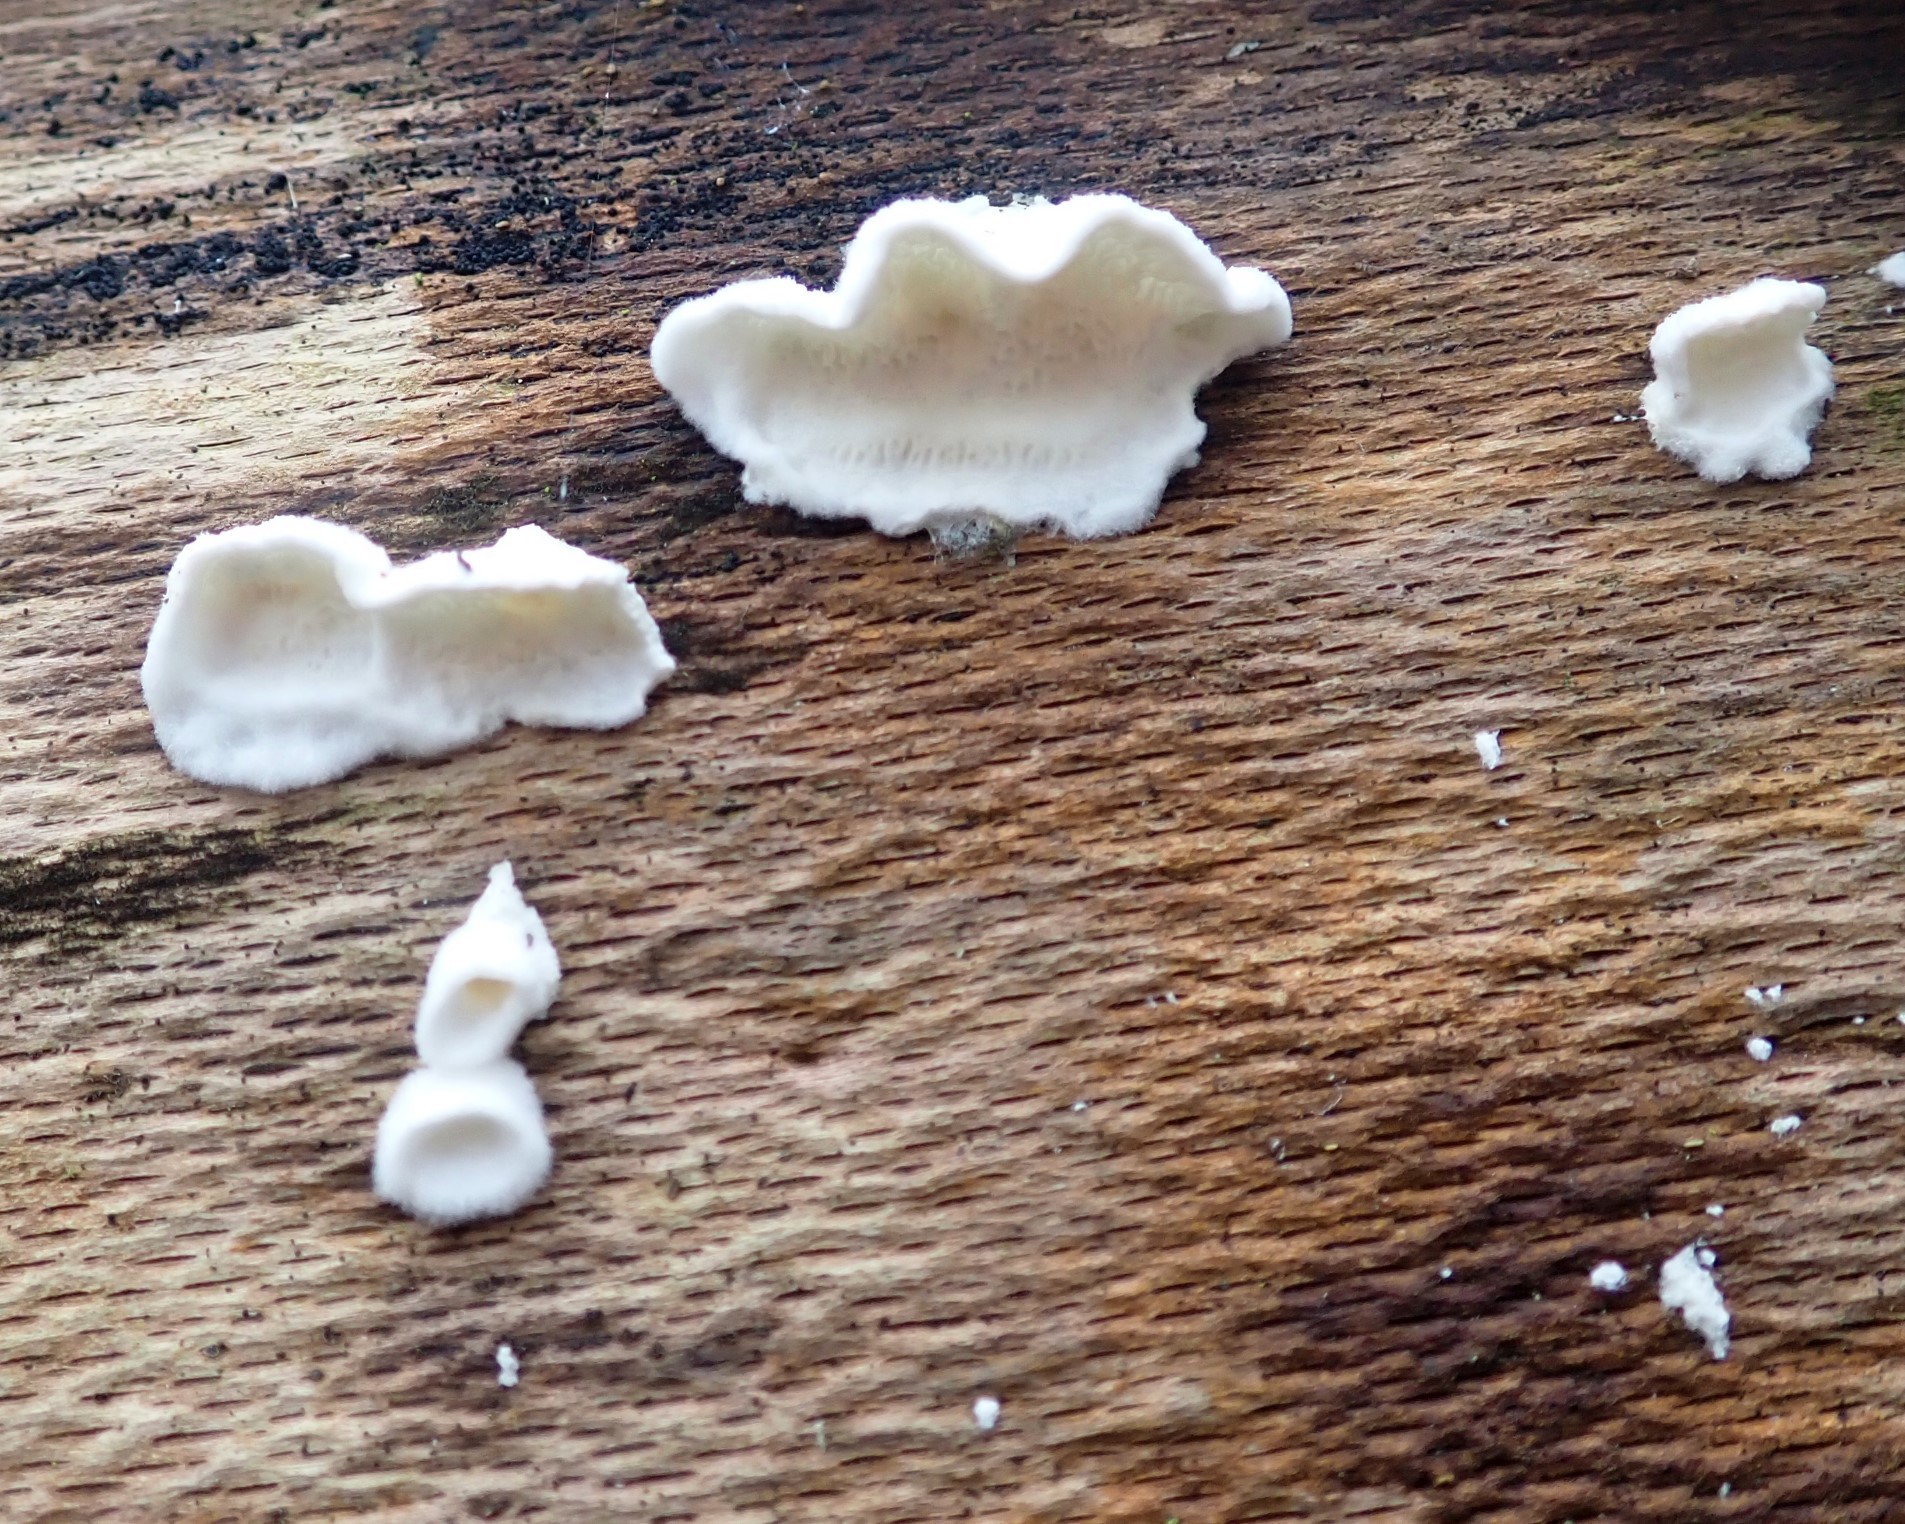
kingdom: Fungi
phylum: Basidiomycota
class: Agaricomycetes
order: Agaricales
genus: Plicatura
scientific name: Plicatura nivea
